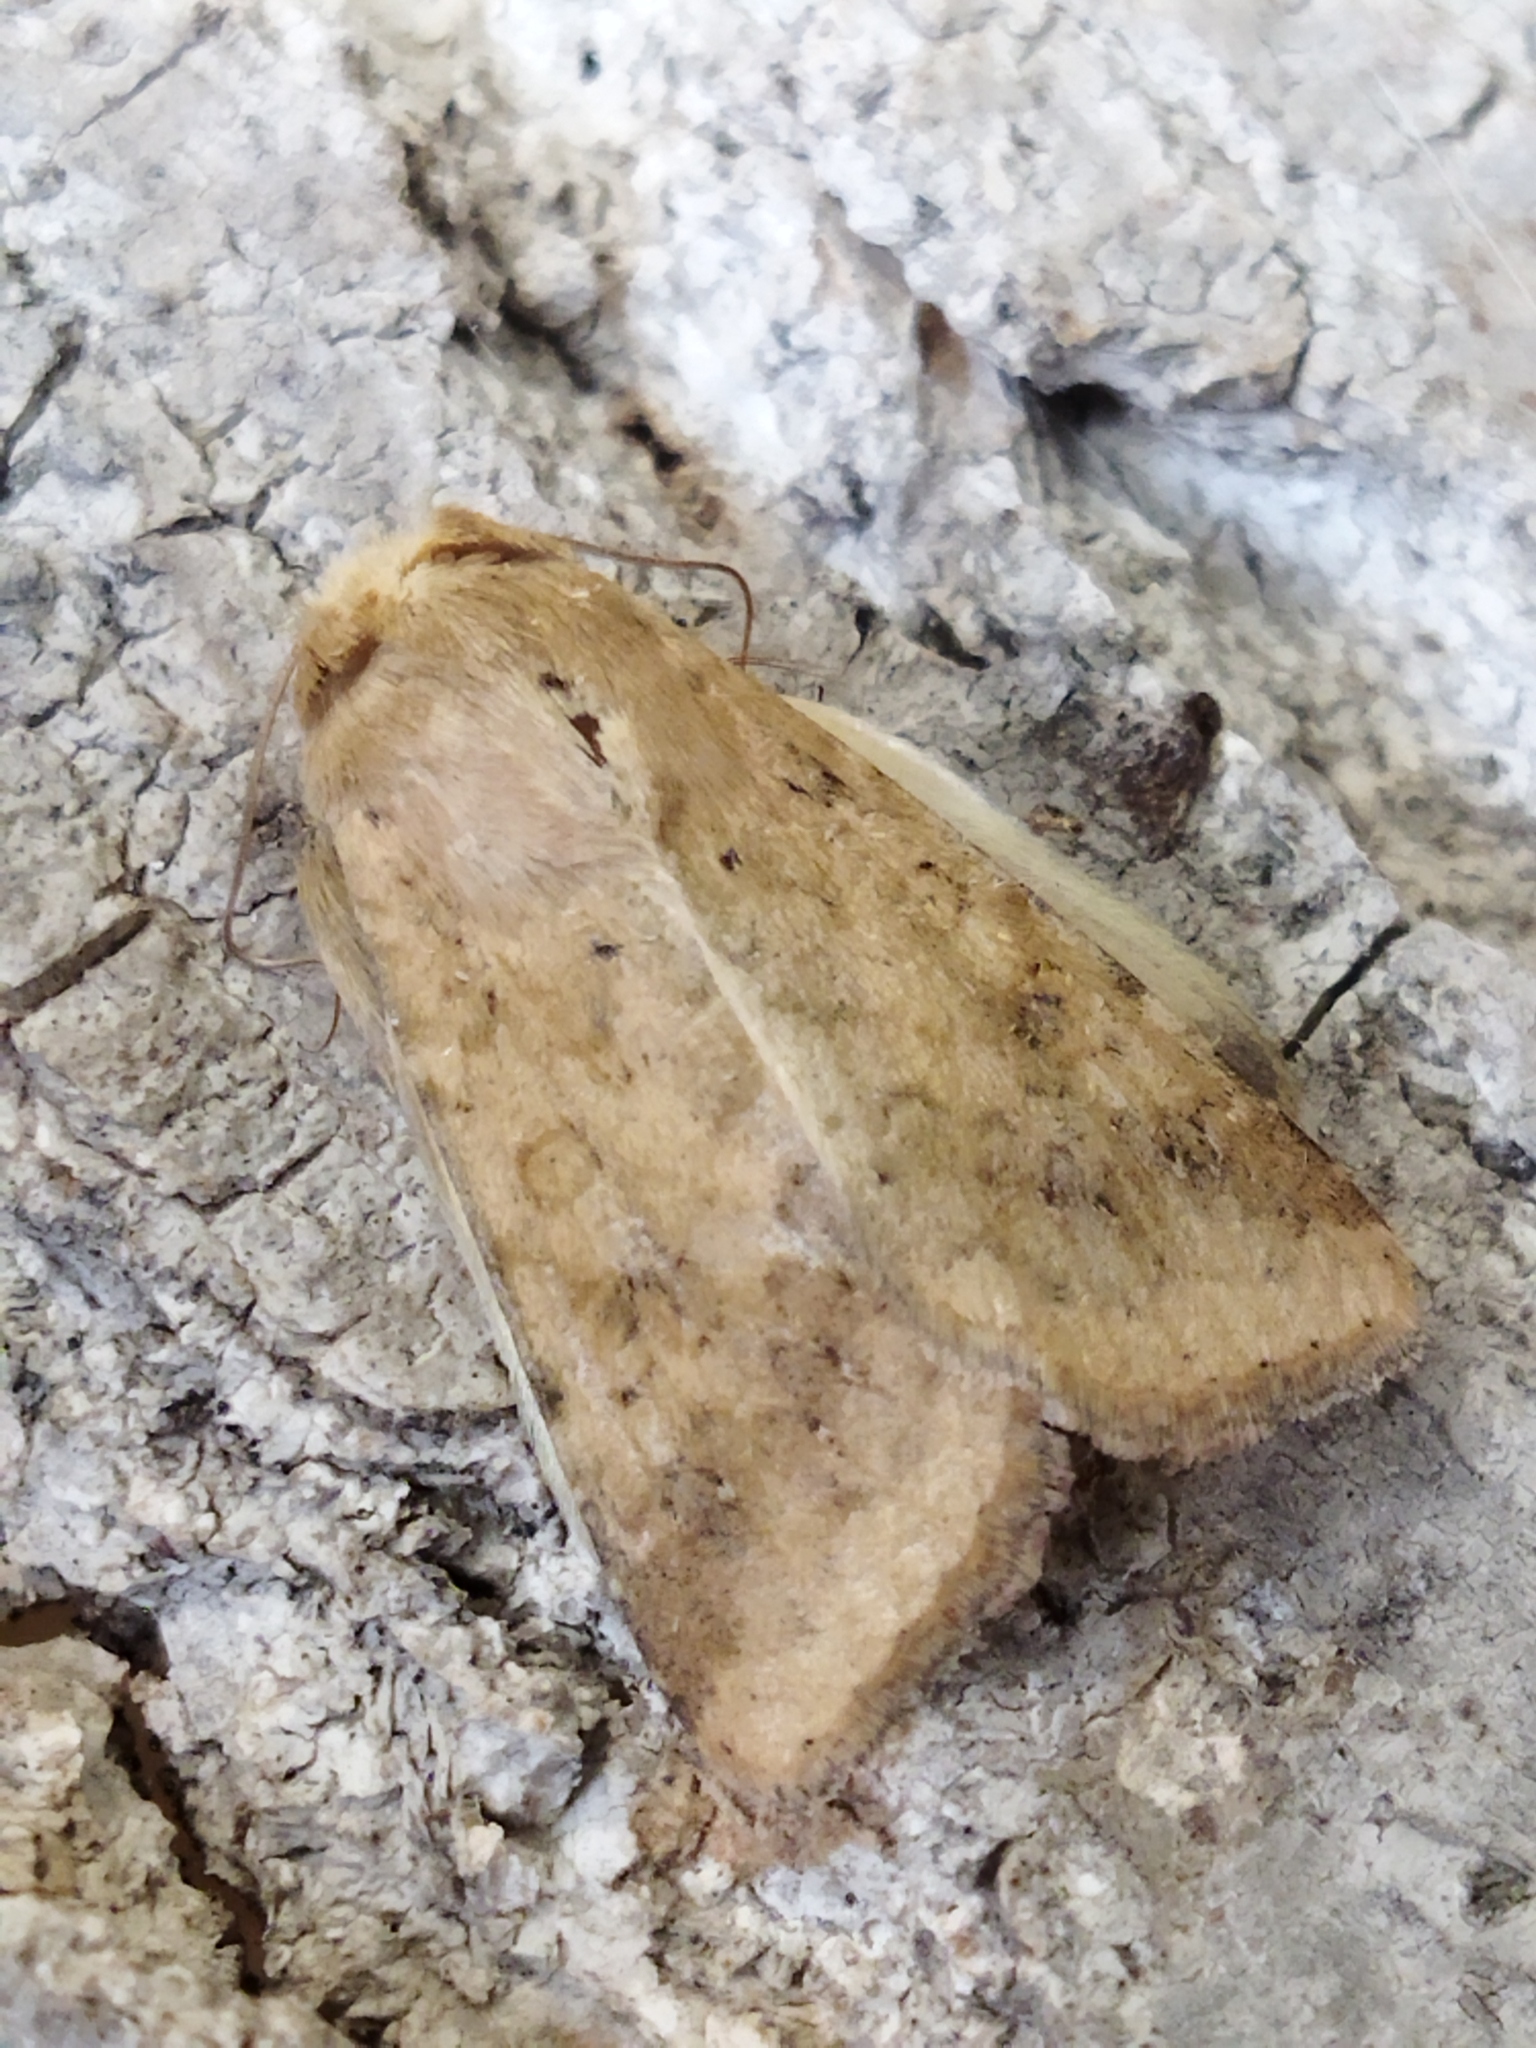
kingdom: Animalia
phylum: Arthropoda
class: Insecta
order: Lepidoptera
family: Noctuidae
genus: Helicoverpa
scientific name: Helicoverpa armigera
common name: Cotton bollworm
